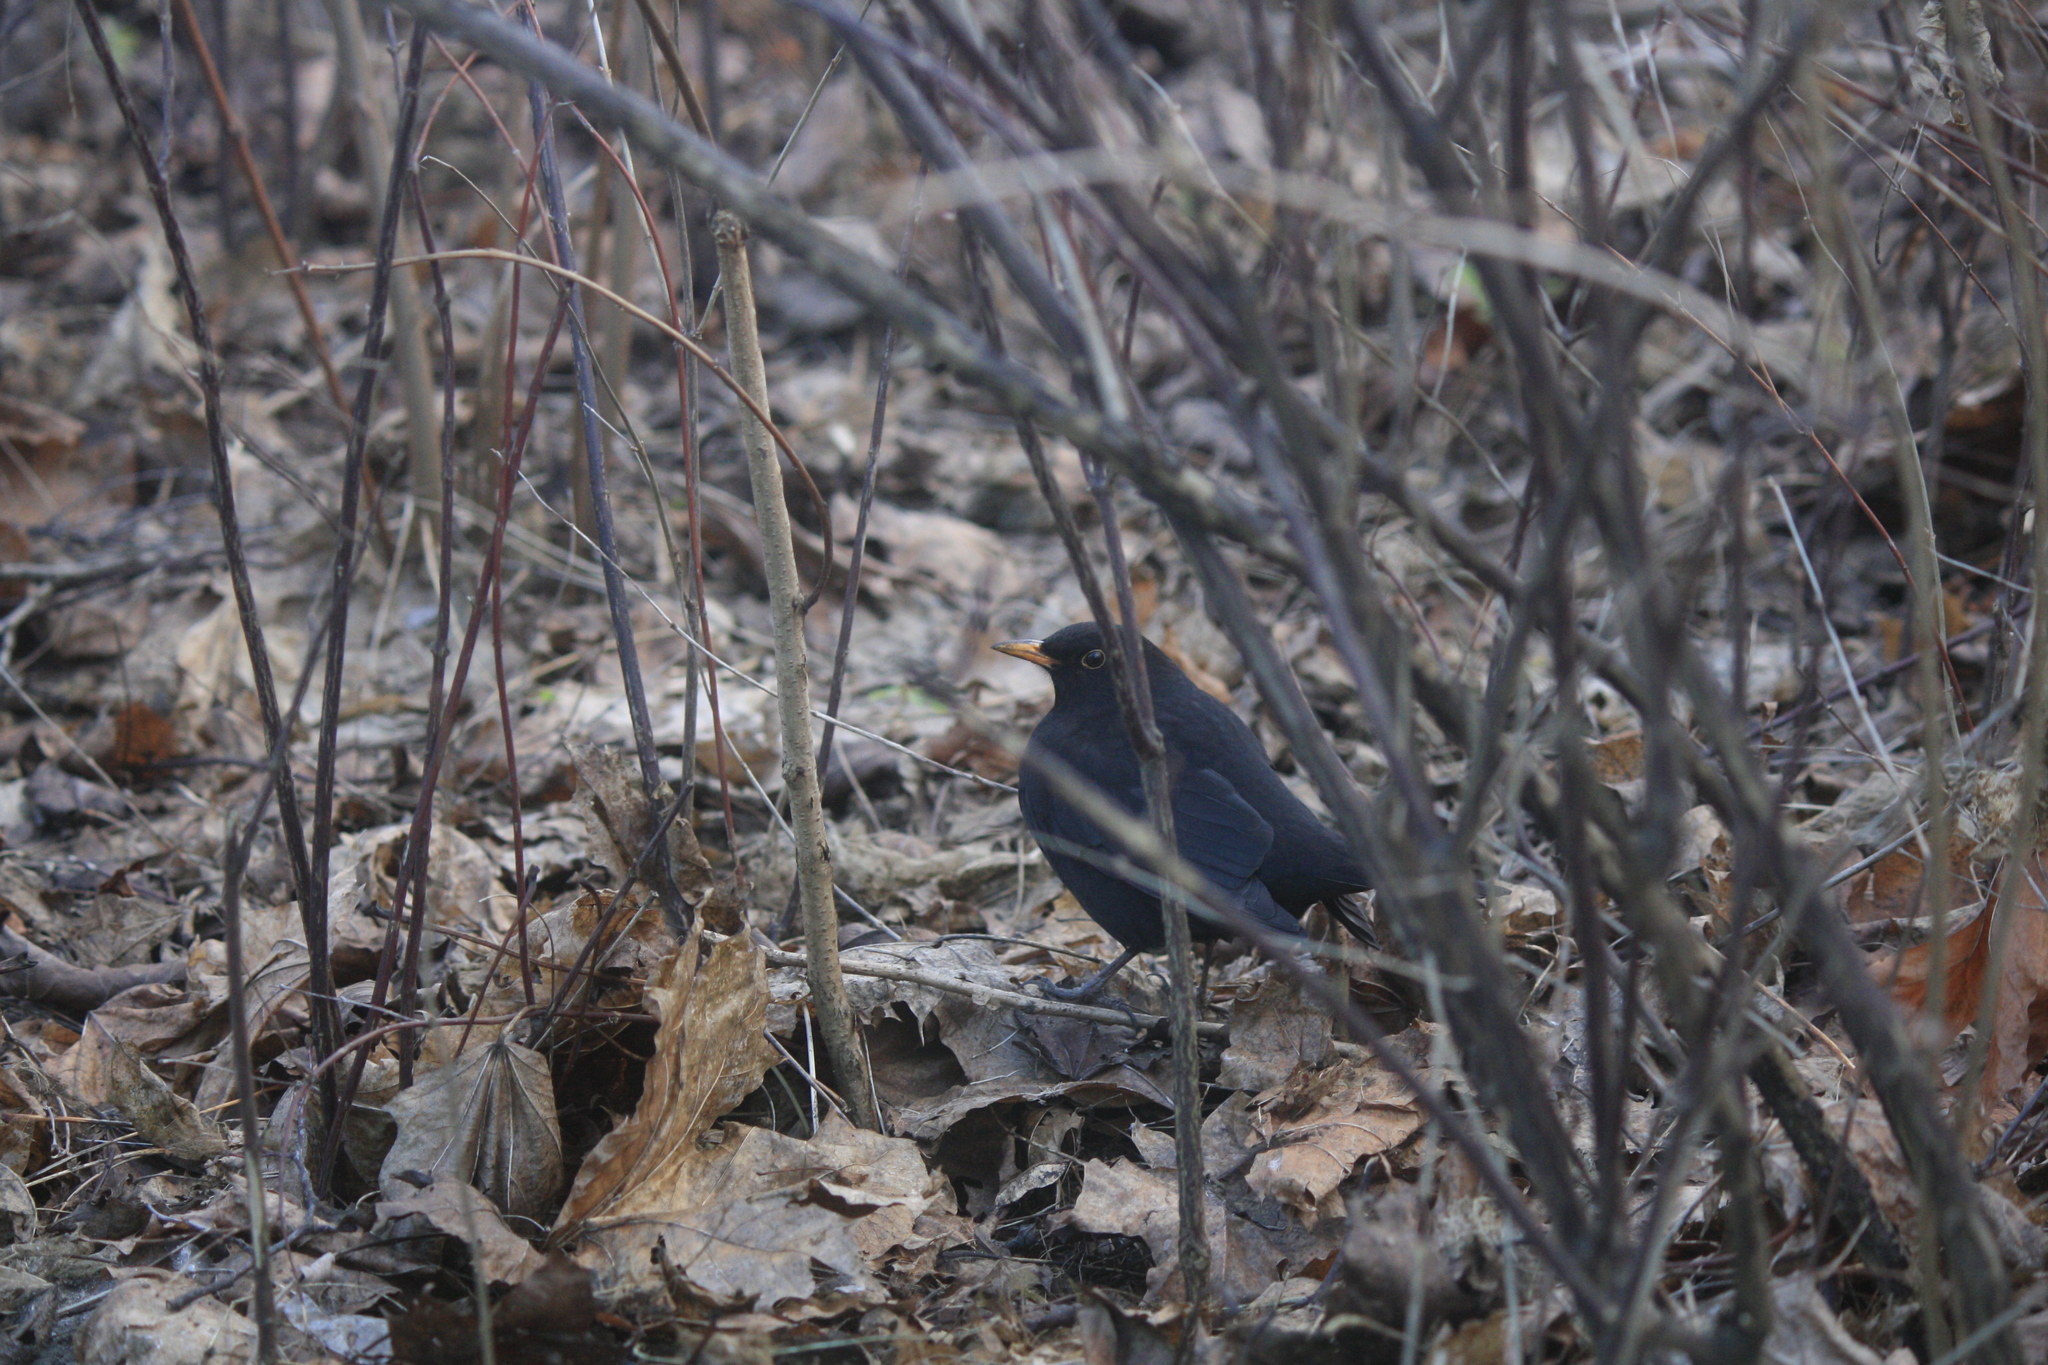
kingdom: Animalia
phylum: Chordata
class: Aves
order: Passeriformes
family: Turdidae
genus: Turdus
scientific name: Turdus merula
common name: Common blackbird
